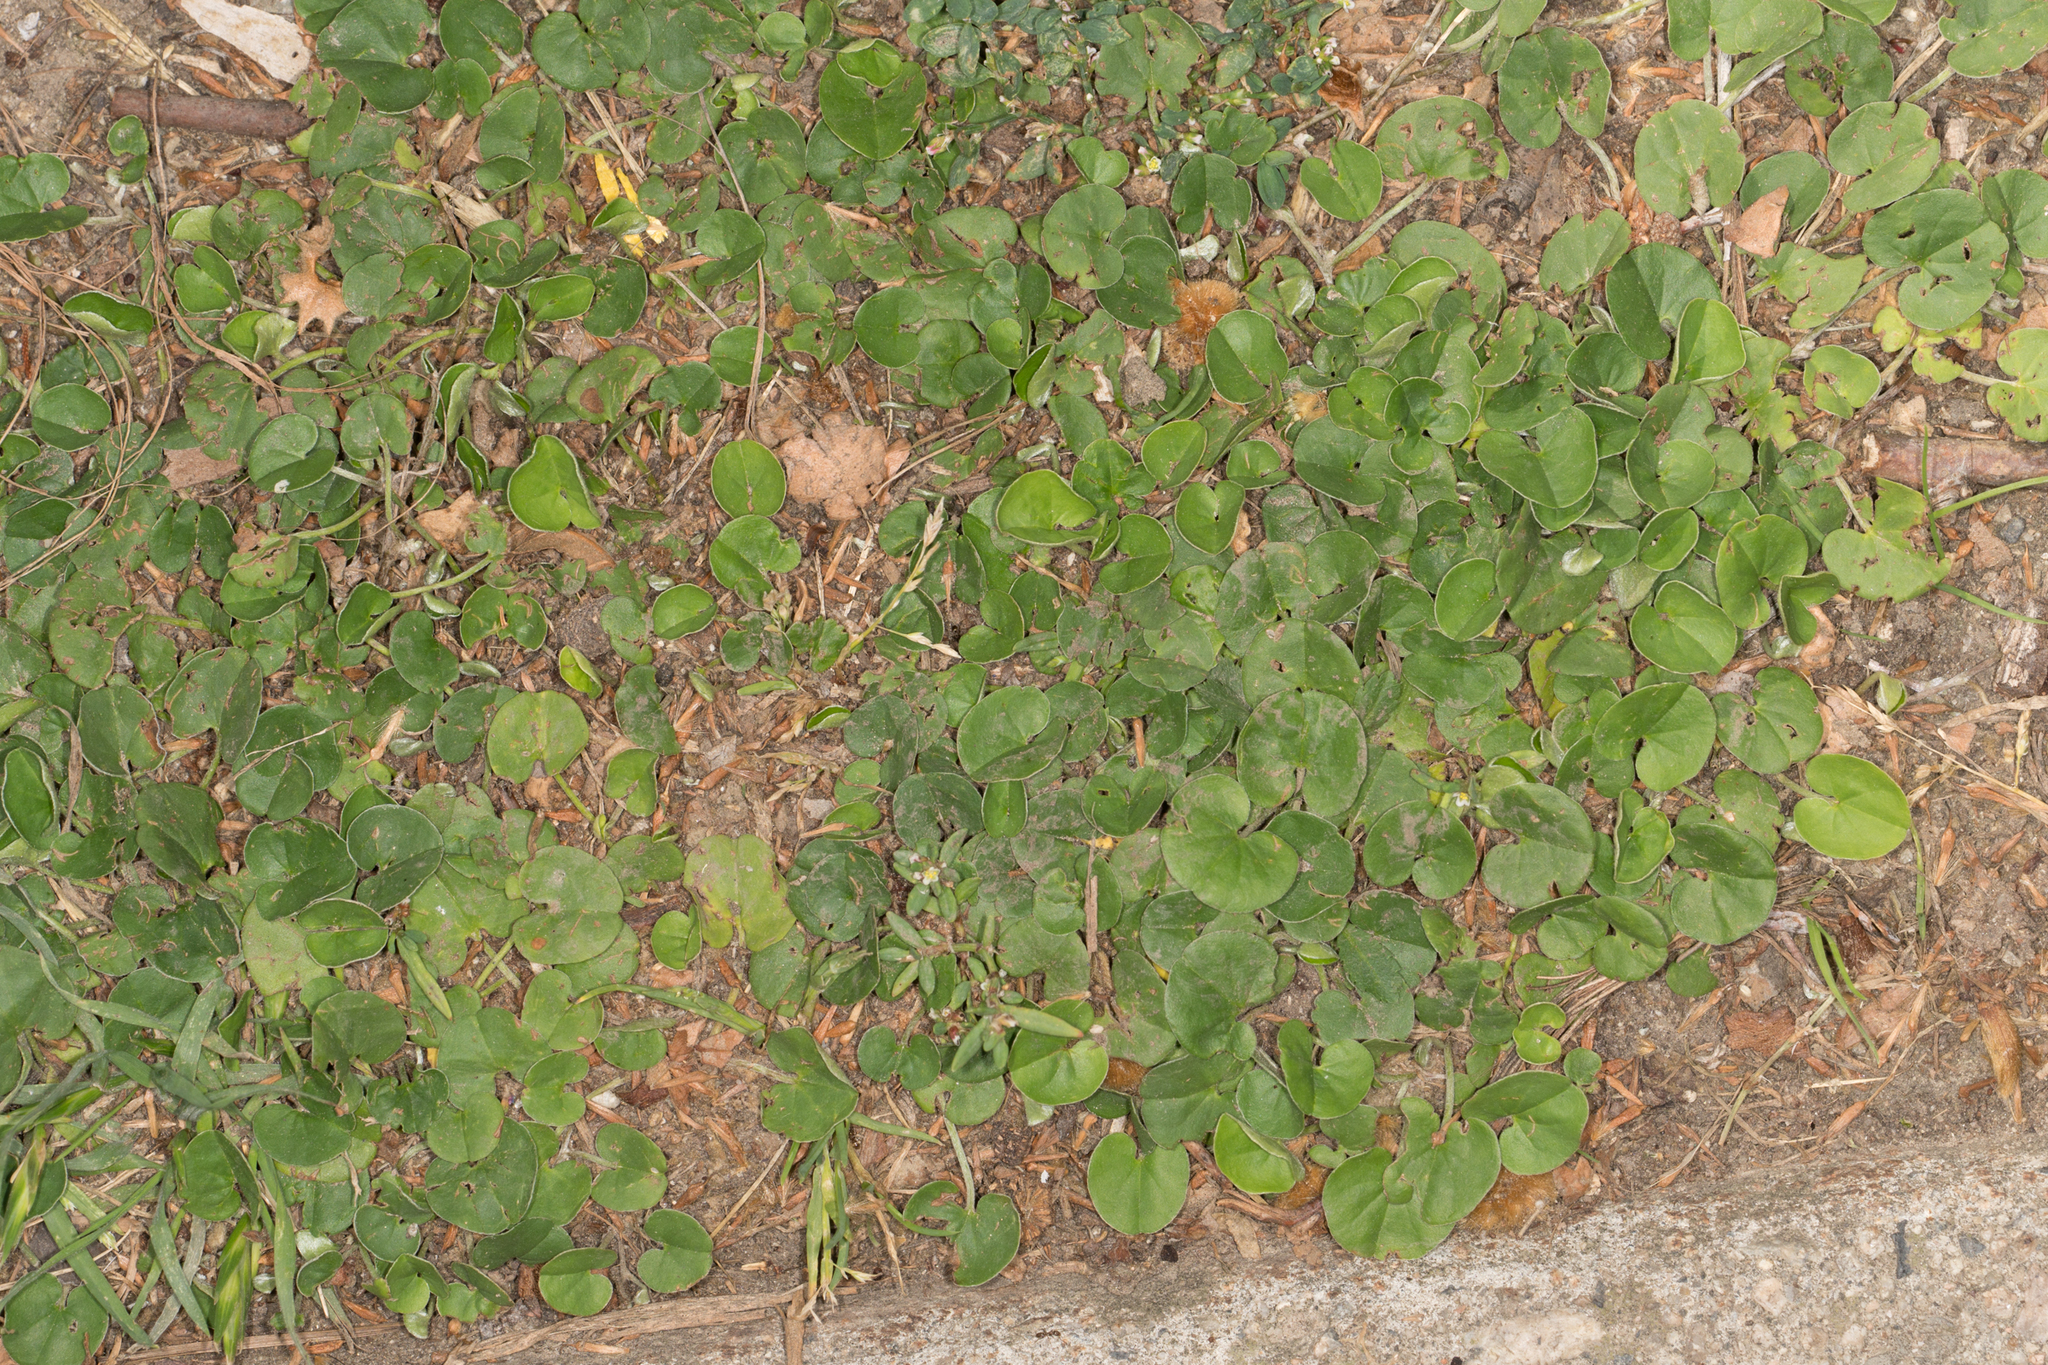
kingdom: Plantae
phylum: Tracheophyta
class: Magnoliopsida
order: Solanales
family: Convolvulaceae
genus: Dichondra
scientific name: Dichondra micrantha
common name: Kidneyweed
